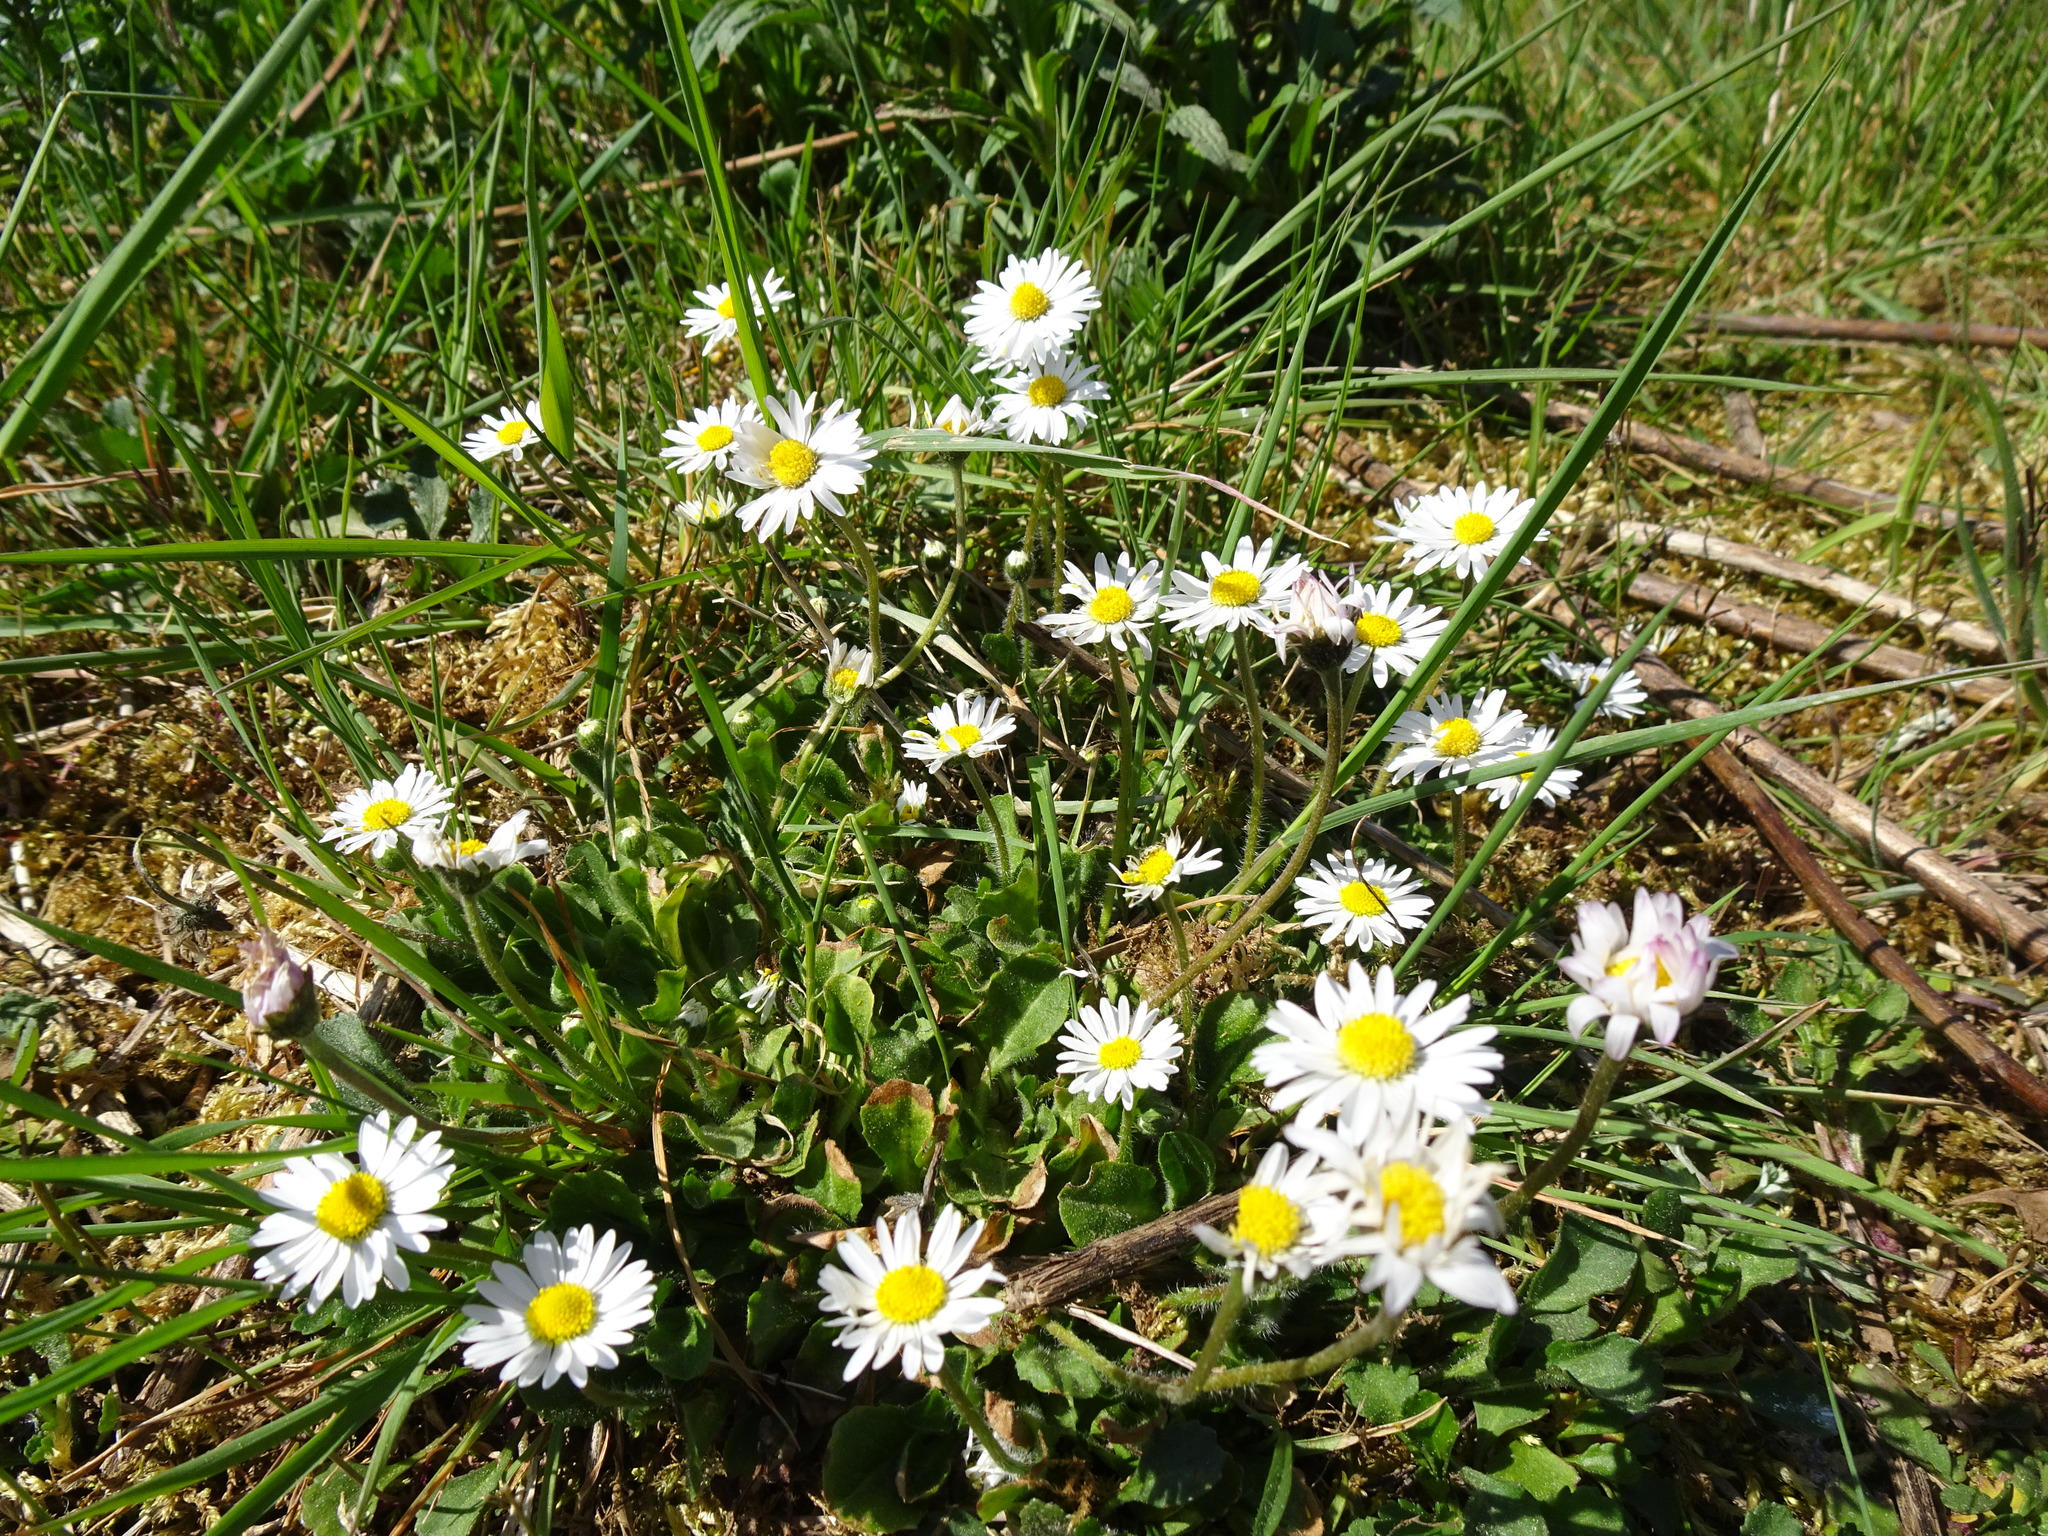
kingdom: Plantae
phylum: Tracheophyta
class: Magnoliopsida
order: Asterales
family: Asteraceae
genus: Bellis
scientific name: Bellis perennis
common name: Lawndaisy
